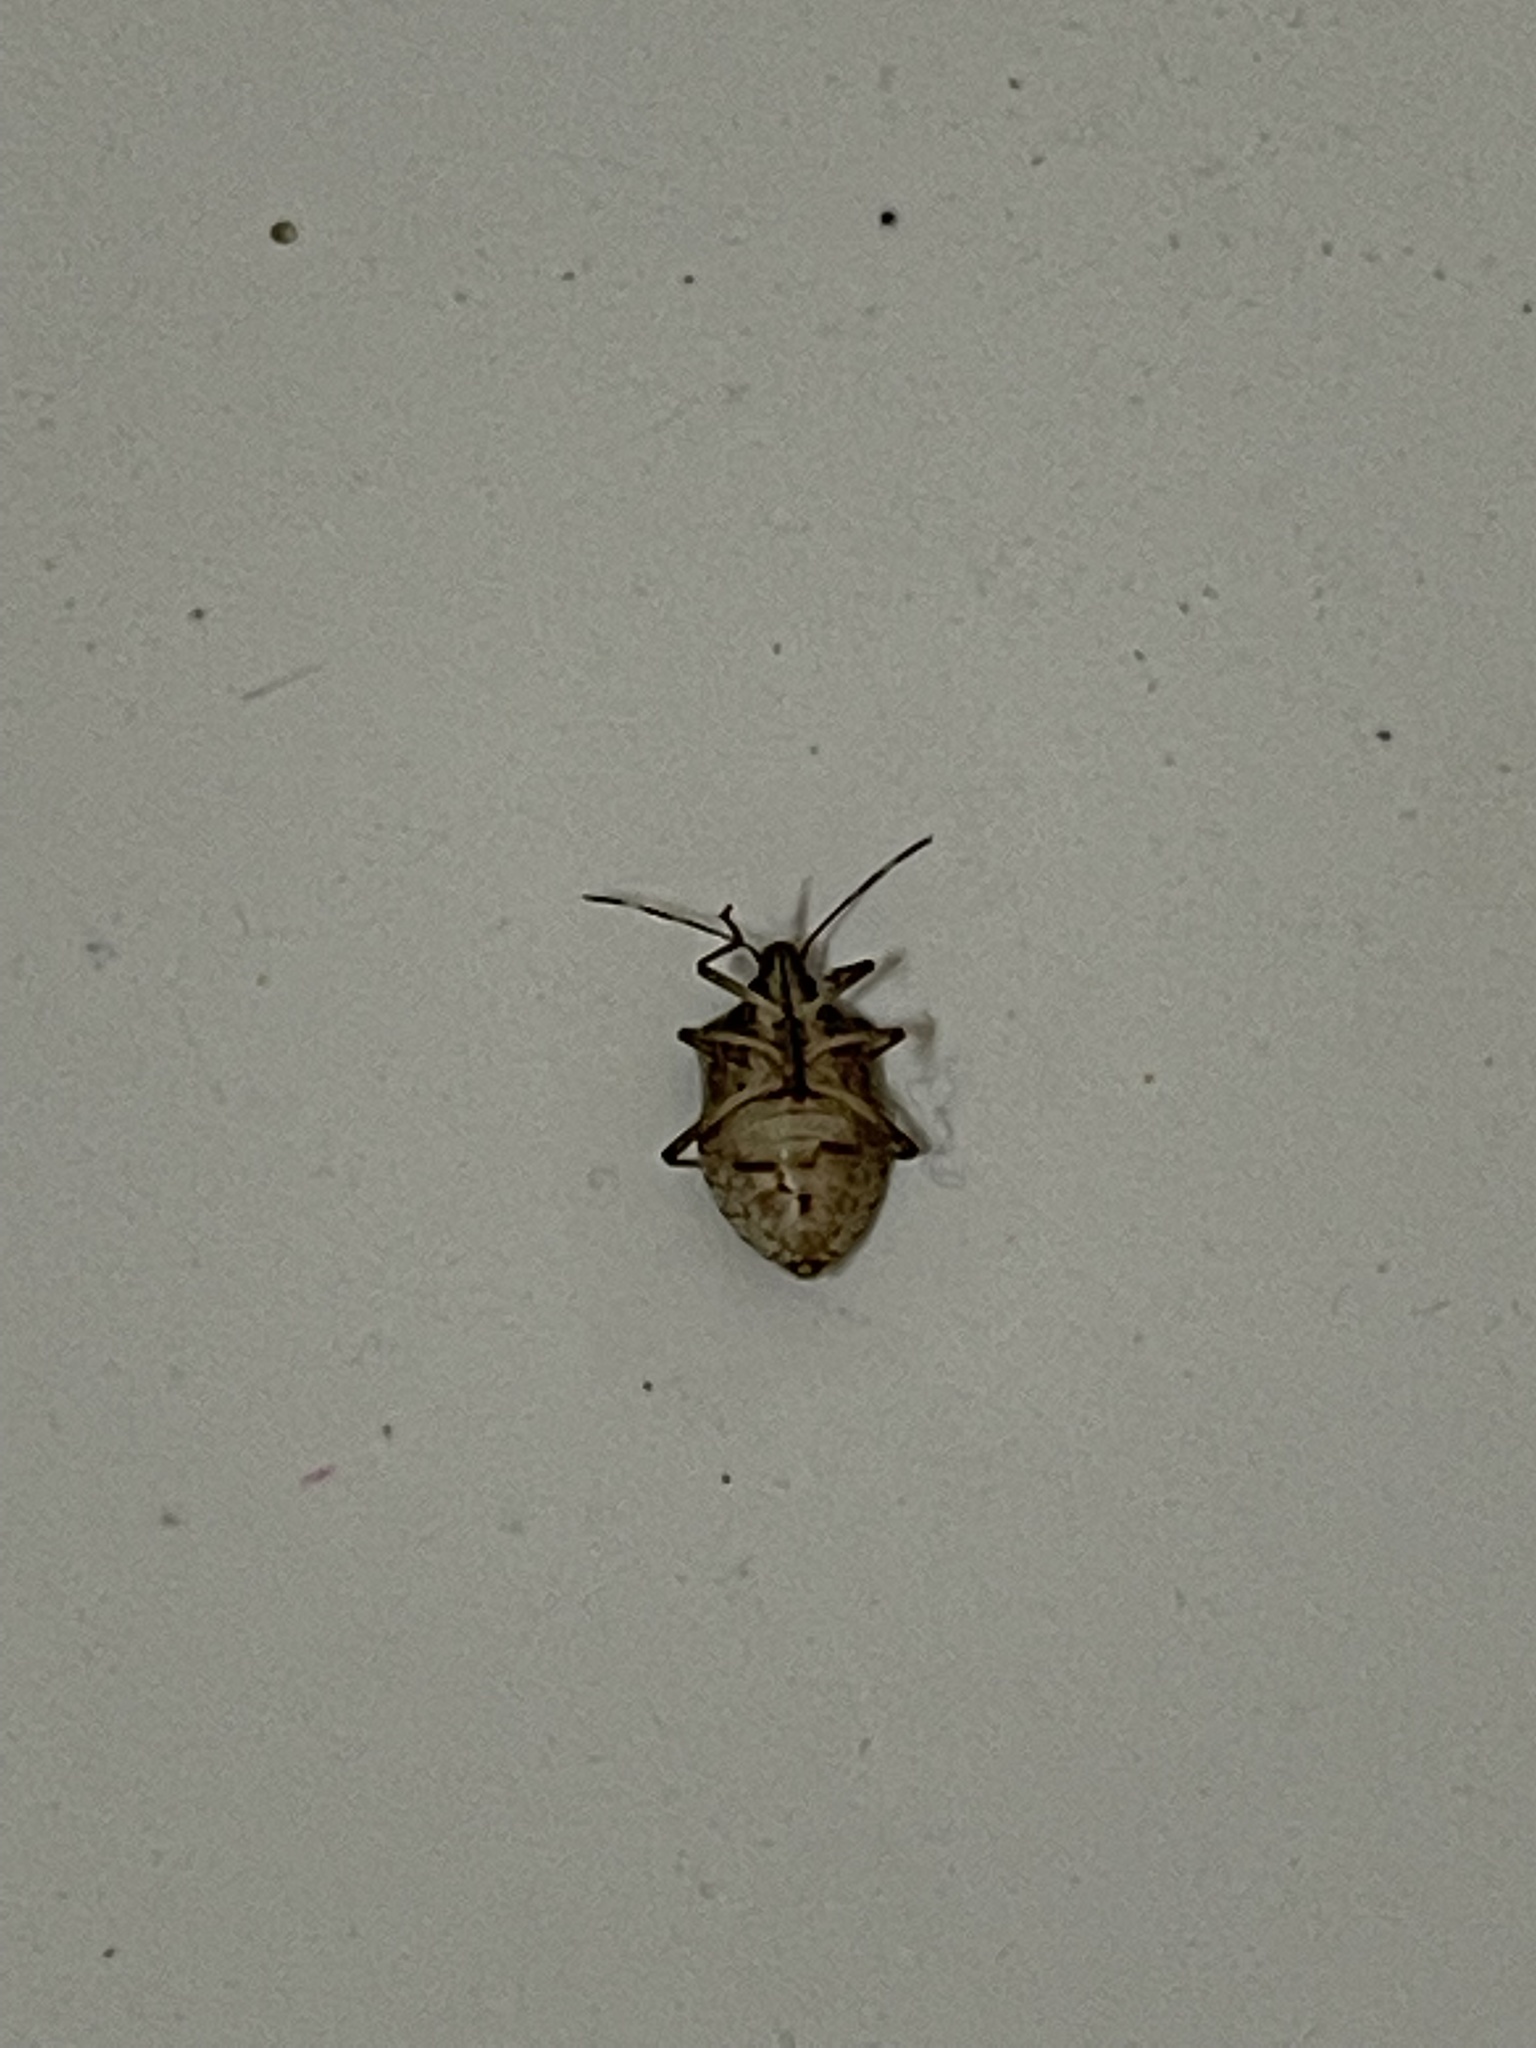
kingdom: Animalia
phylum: Arthropoda
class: Insecta
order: Hemiptera
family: Pentatomidae
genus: Halyomorpha
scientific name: Halyomorpha halys
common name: Brown marmorated stink bug
